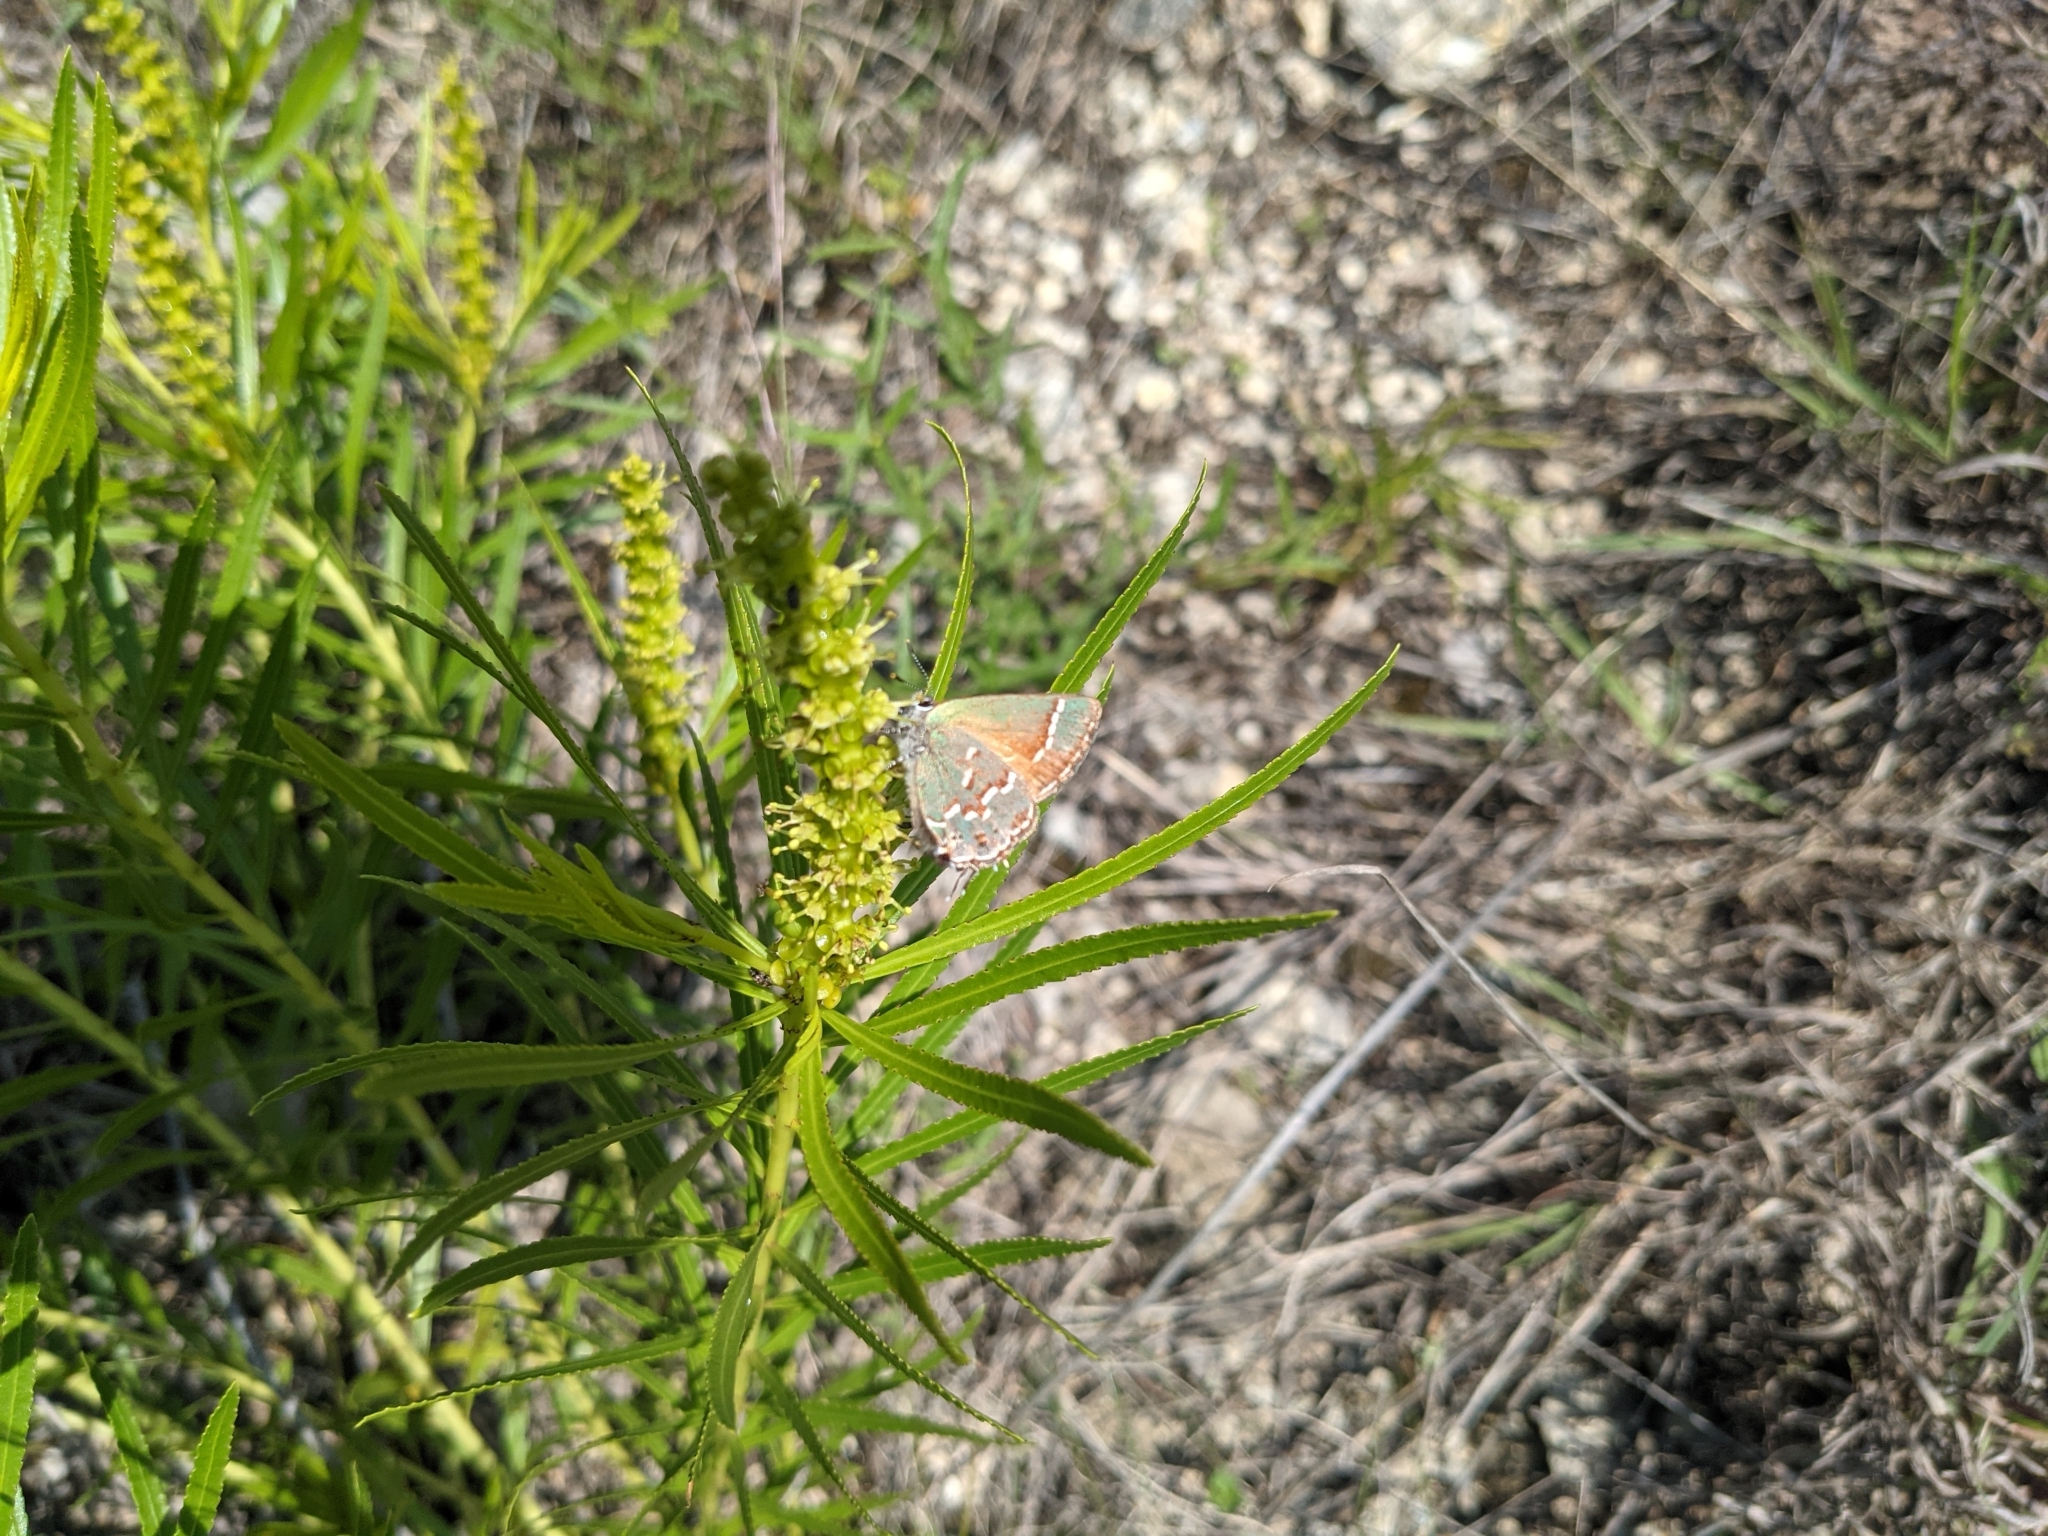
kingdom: Animalia
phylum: Arthropoda
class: Insecta
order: Lepidoptera
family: Lycaenidae
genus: Mitoura
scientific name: Mitoura gryneus
